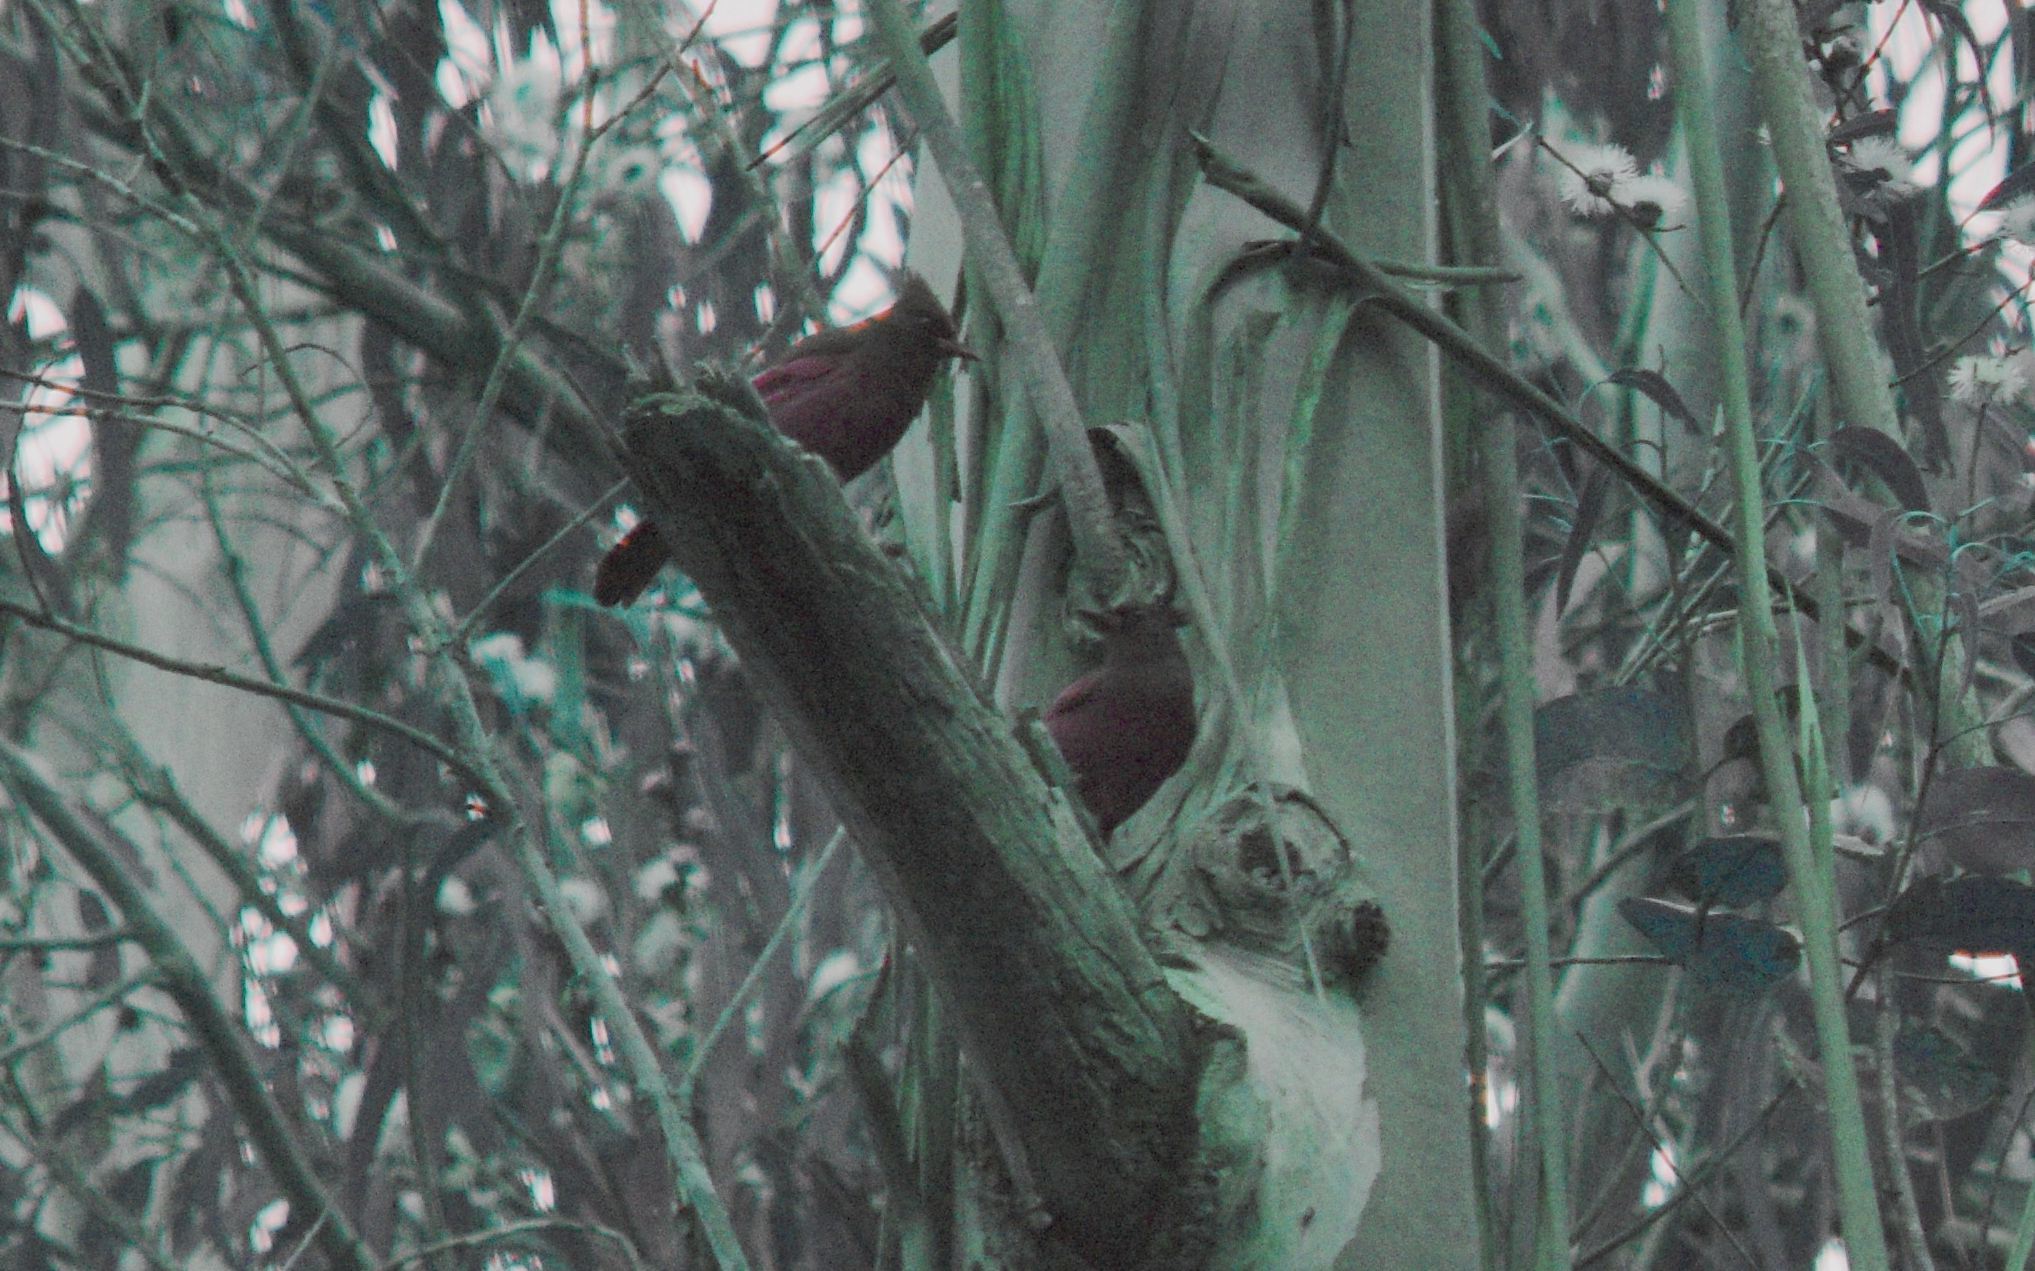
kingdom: Animalia
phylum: Chordata
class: Aves
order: Passeriformes
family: Corvidae
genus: Cyanocitta
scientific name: Cyanocitta stelleri
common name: Steller's jay
